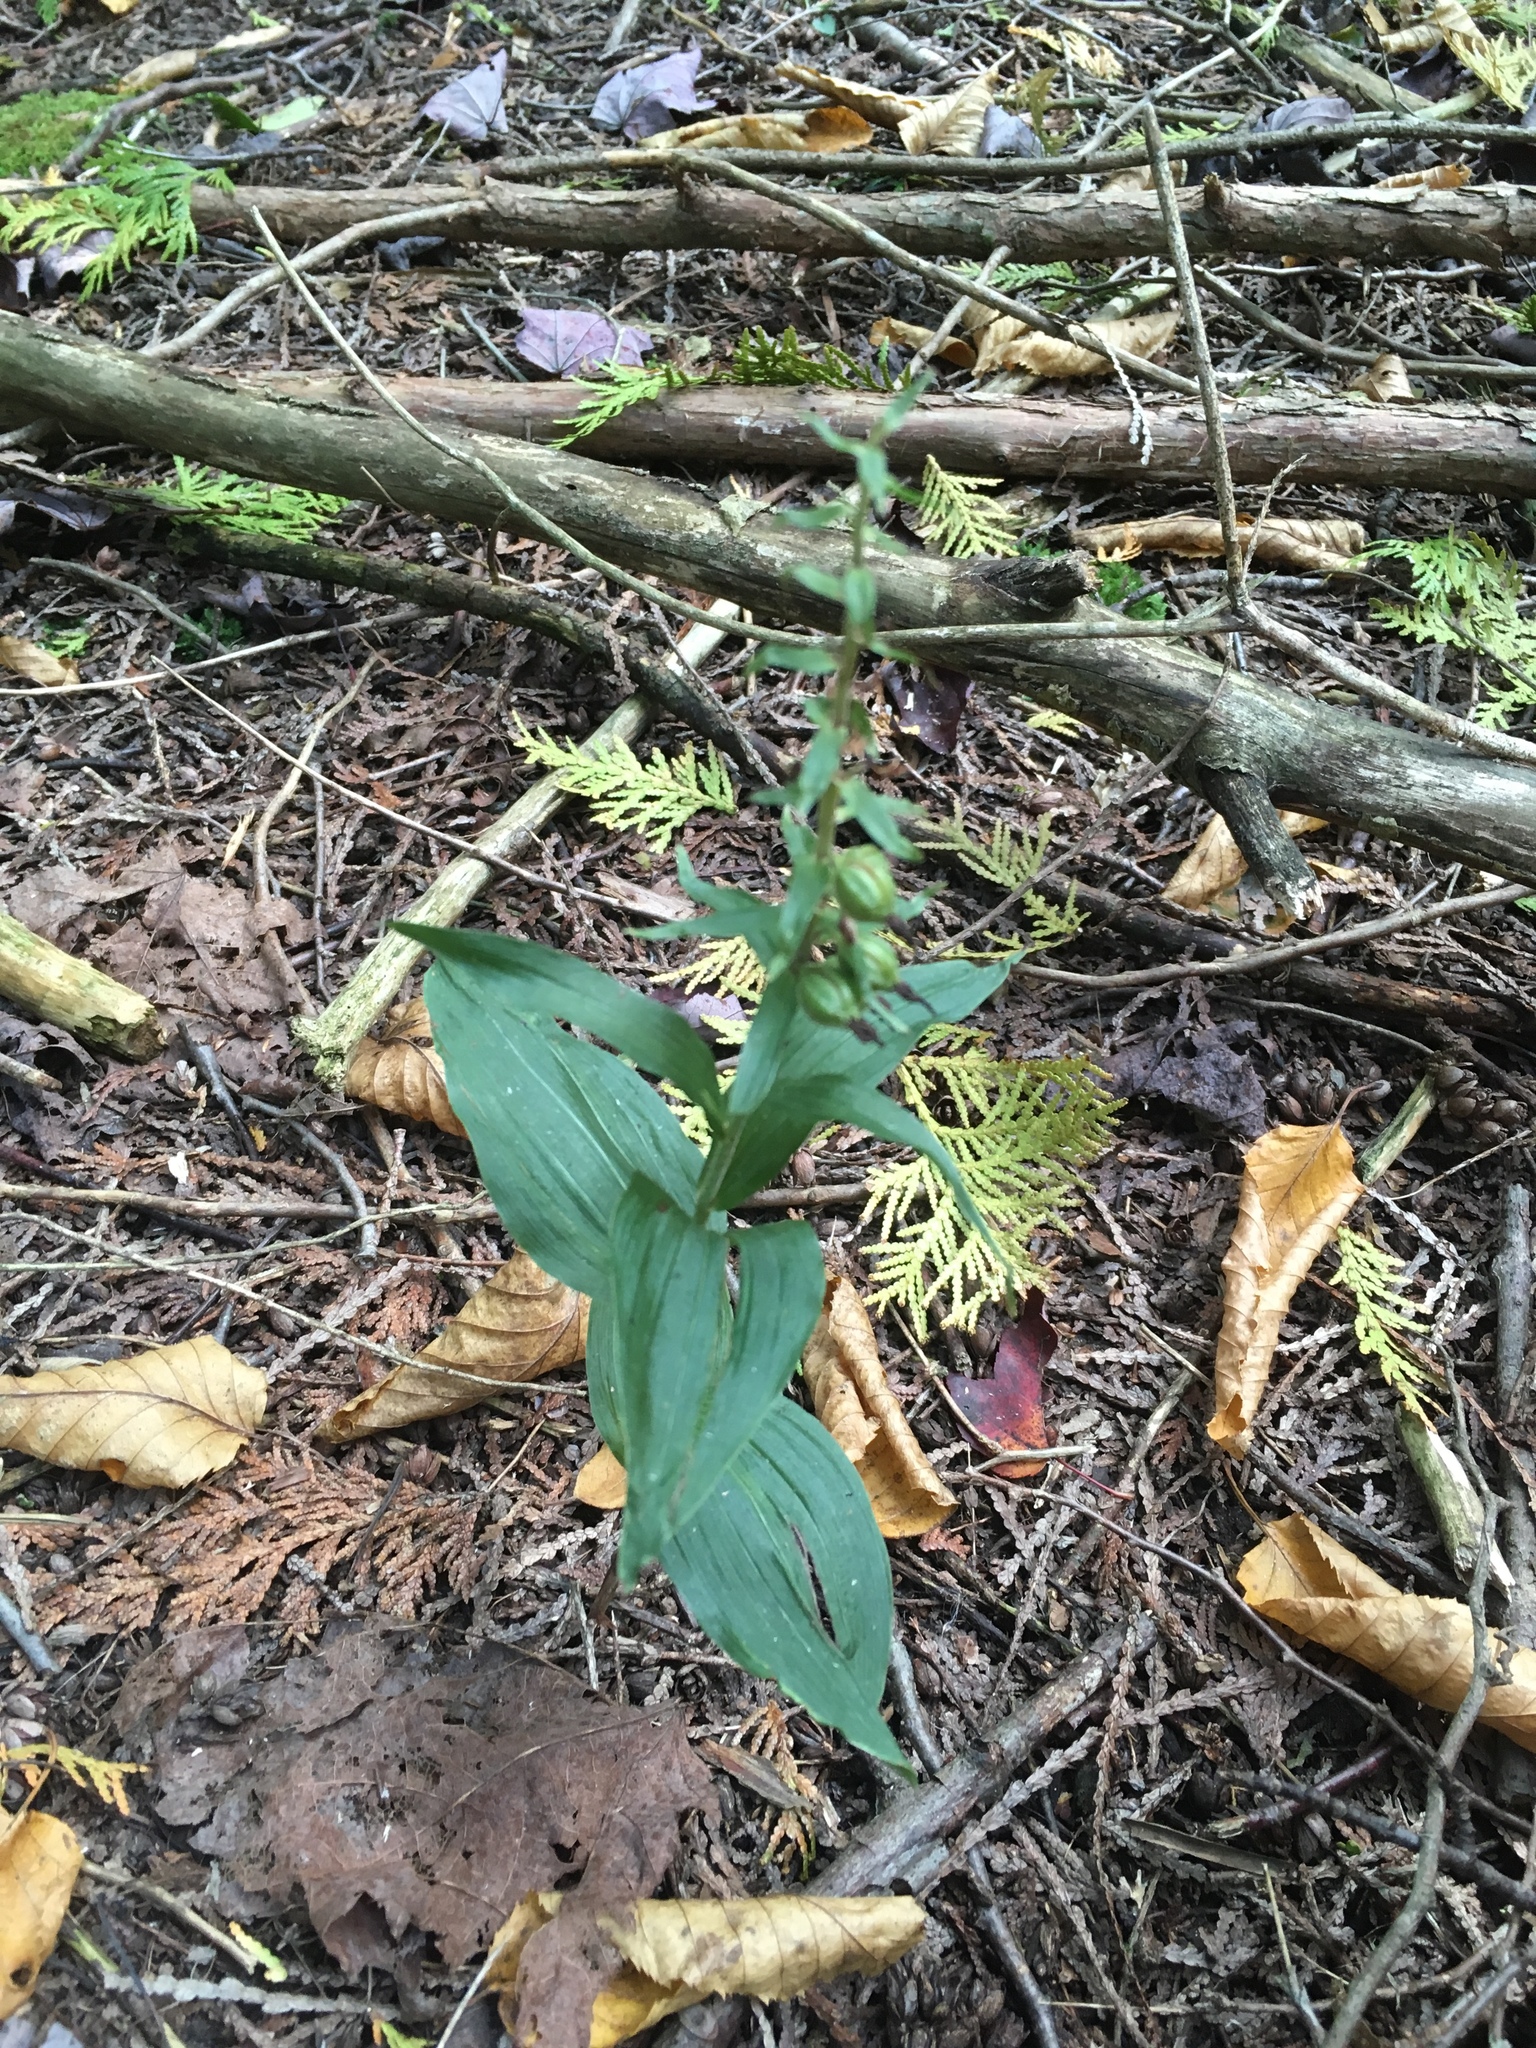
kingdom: Plantae
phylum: Tracheophyta
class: Liliopsida
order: Asparagales
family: Orchidaceae
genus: Epipactis
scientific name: Epipactis helleborine
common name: Broad-leaved helleborine
